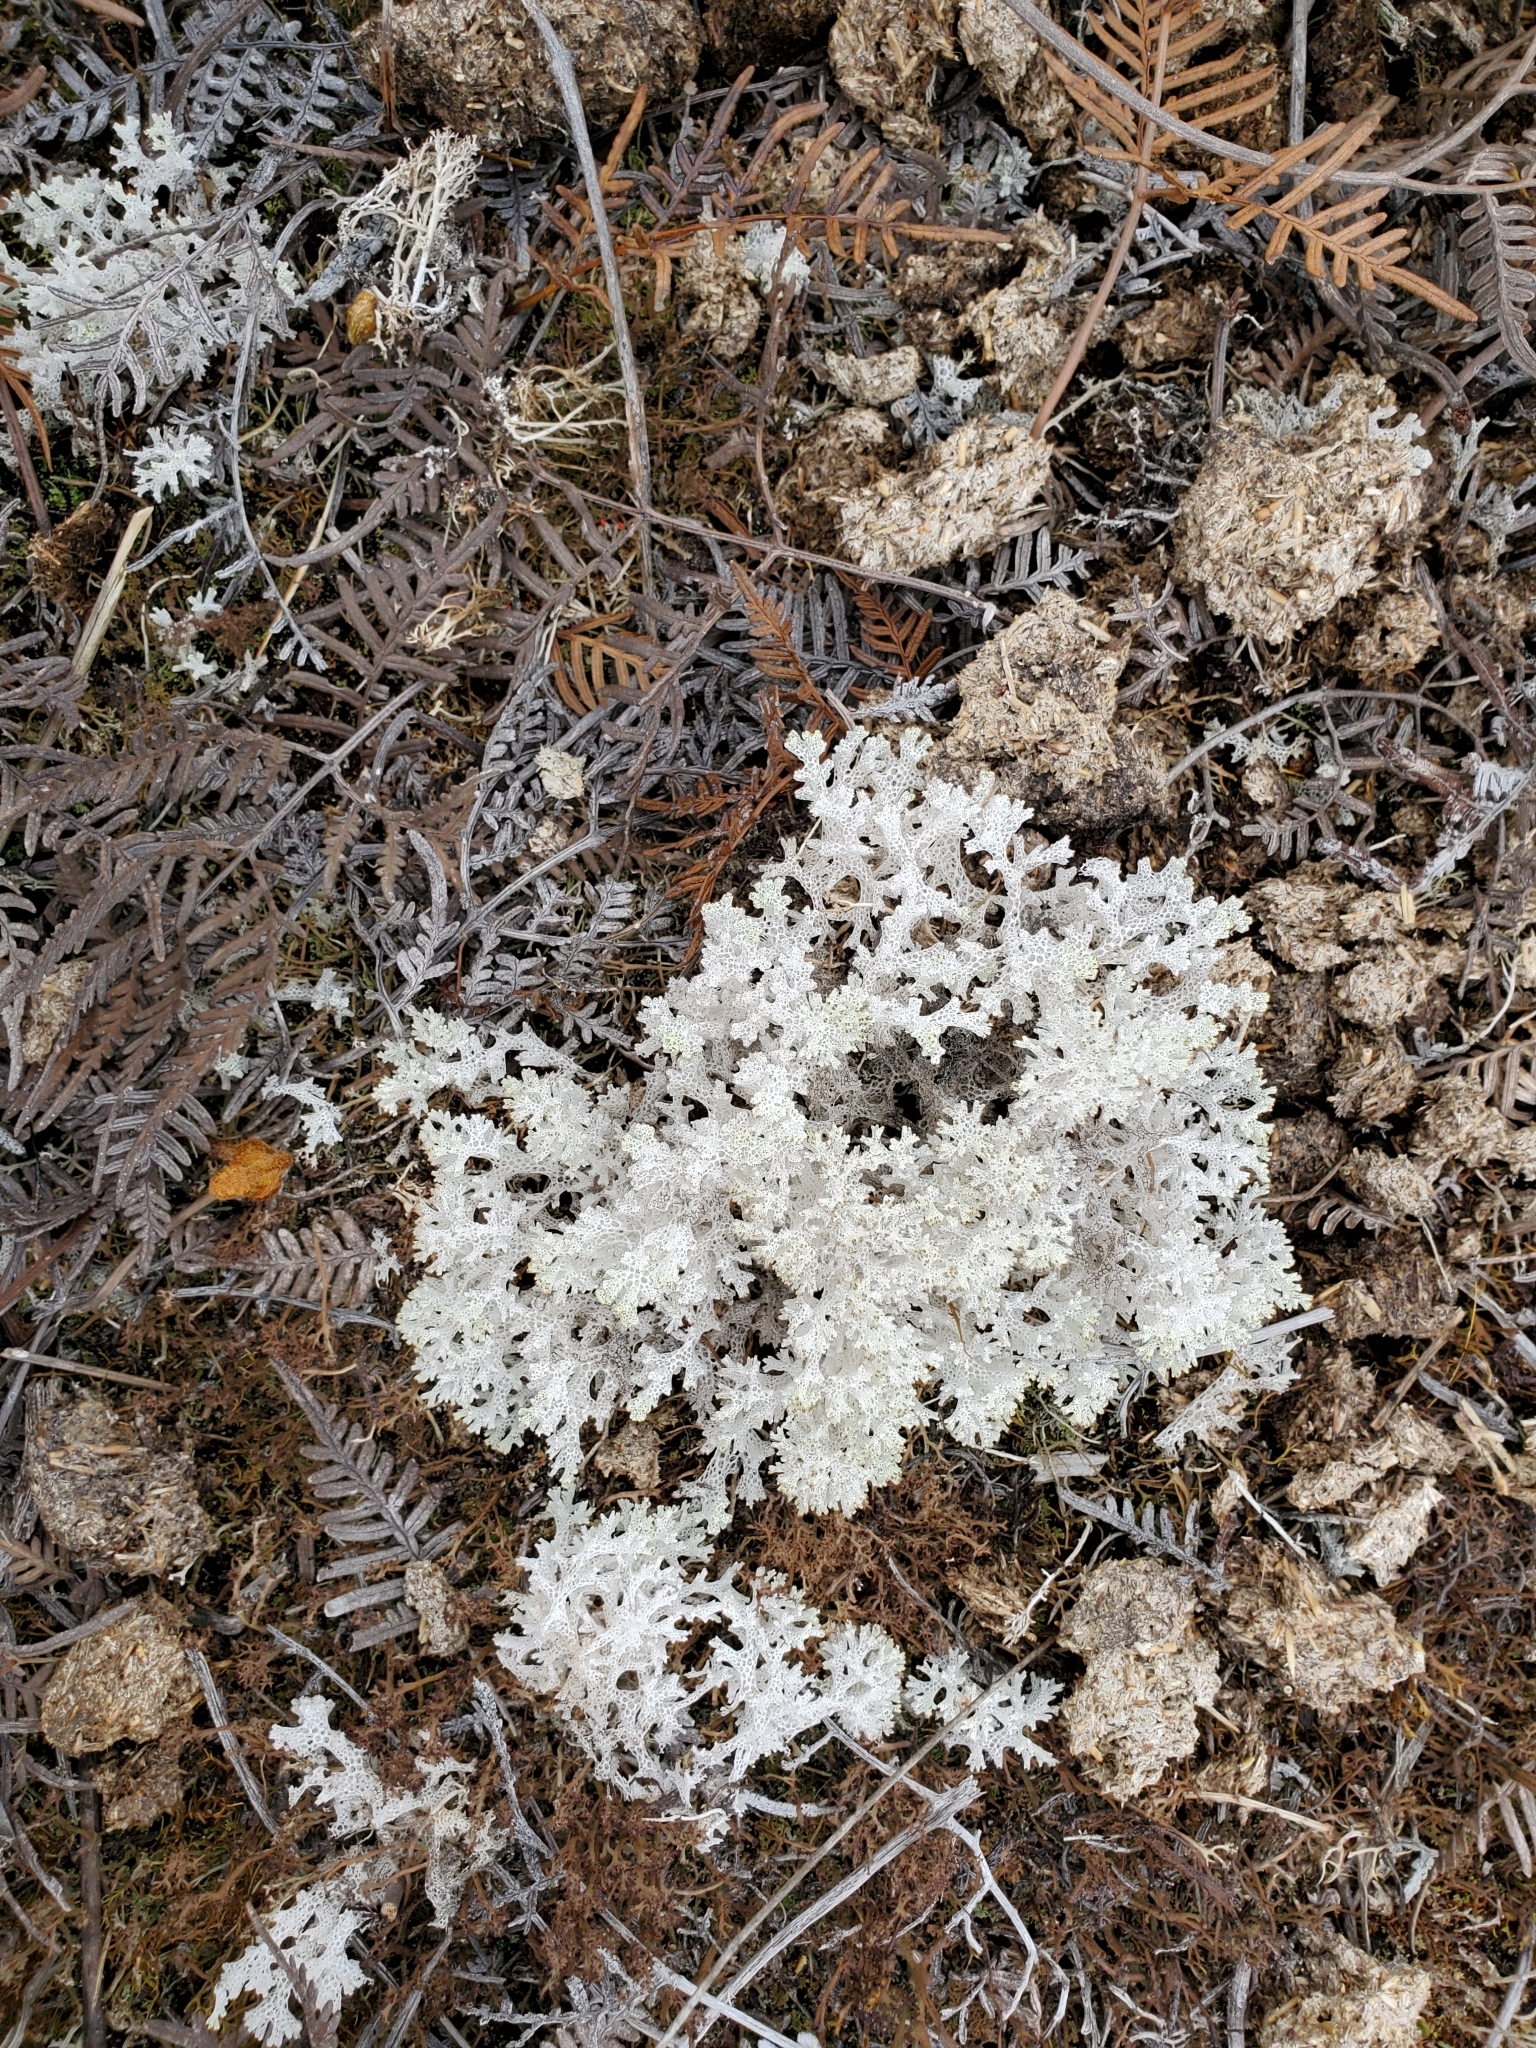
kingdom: Fungi
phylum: Ascomycota
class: Lecanoromycetes
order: Lecanorales
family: Cladoniaceae
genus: Pulchrocladia
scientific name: Pulchrocladia retipora
